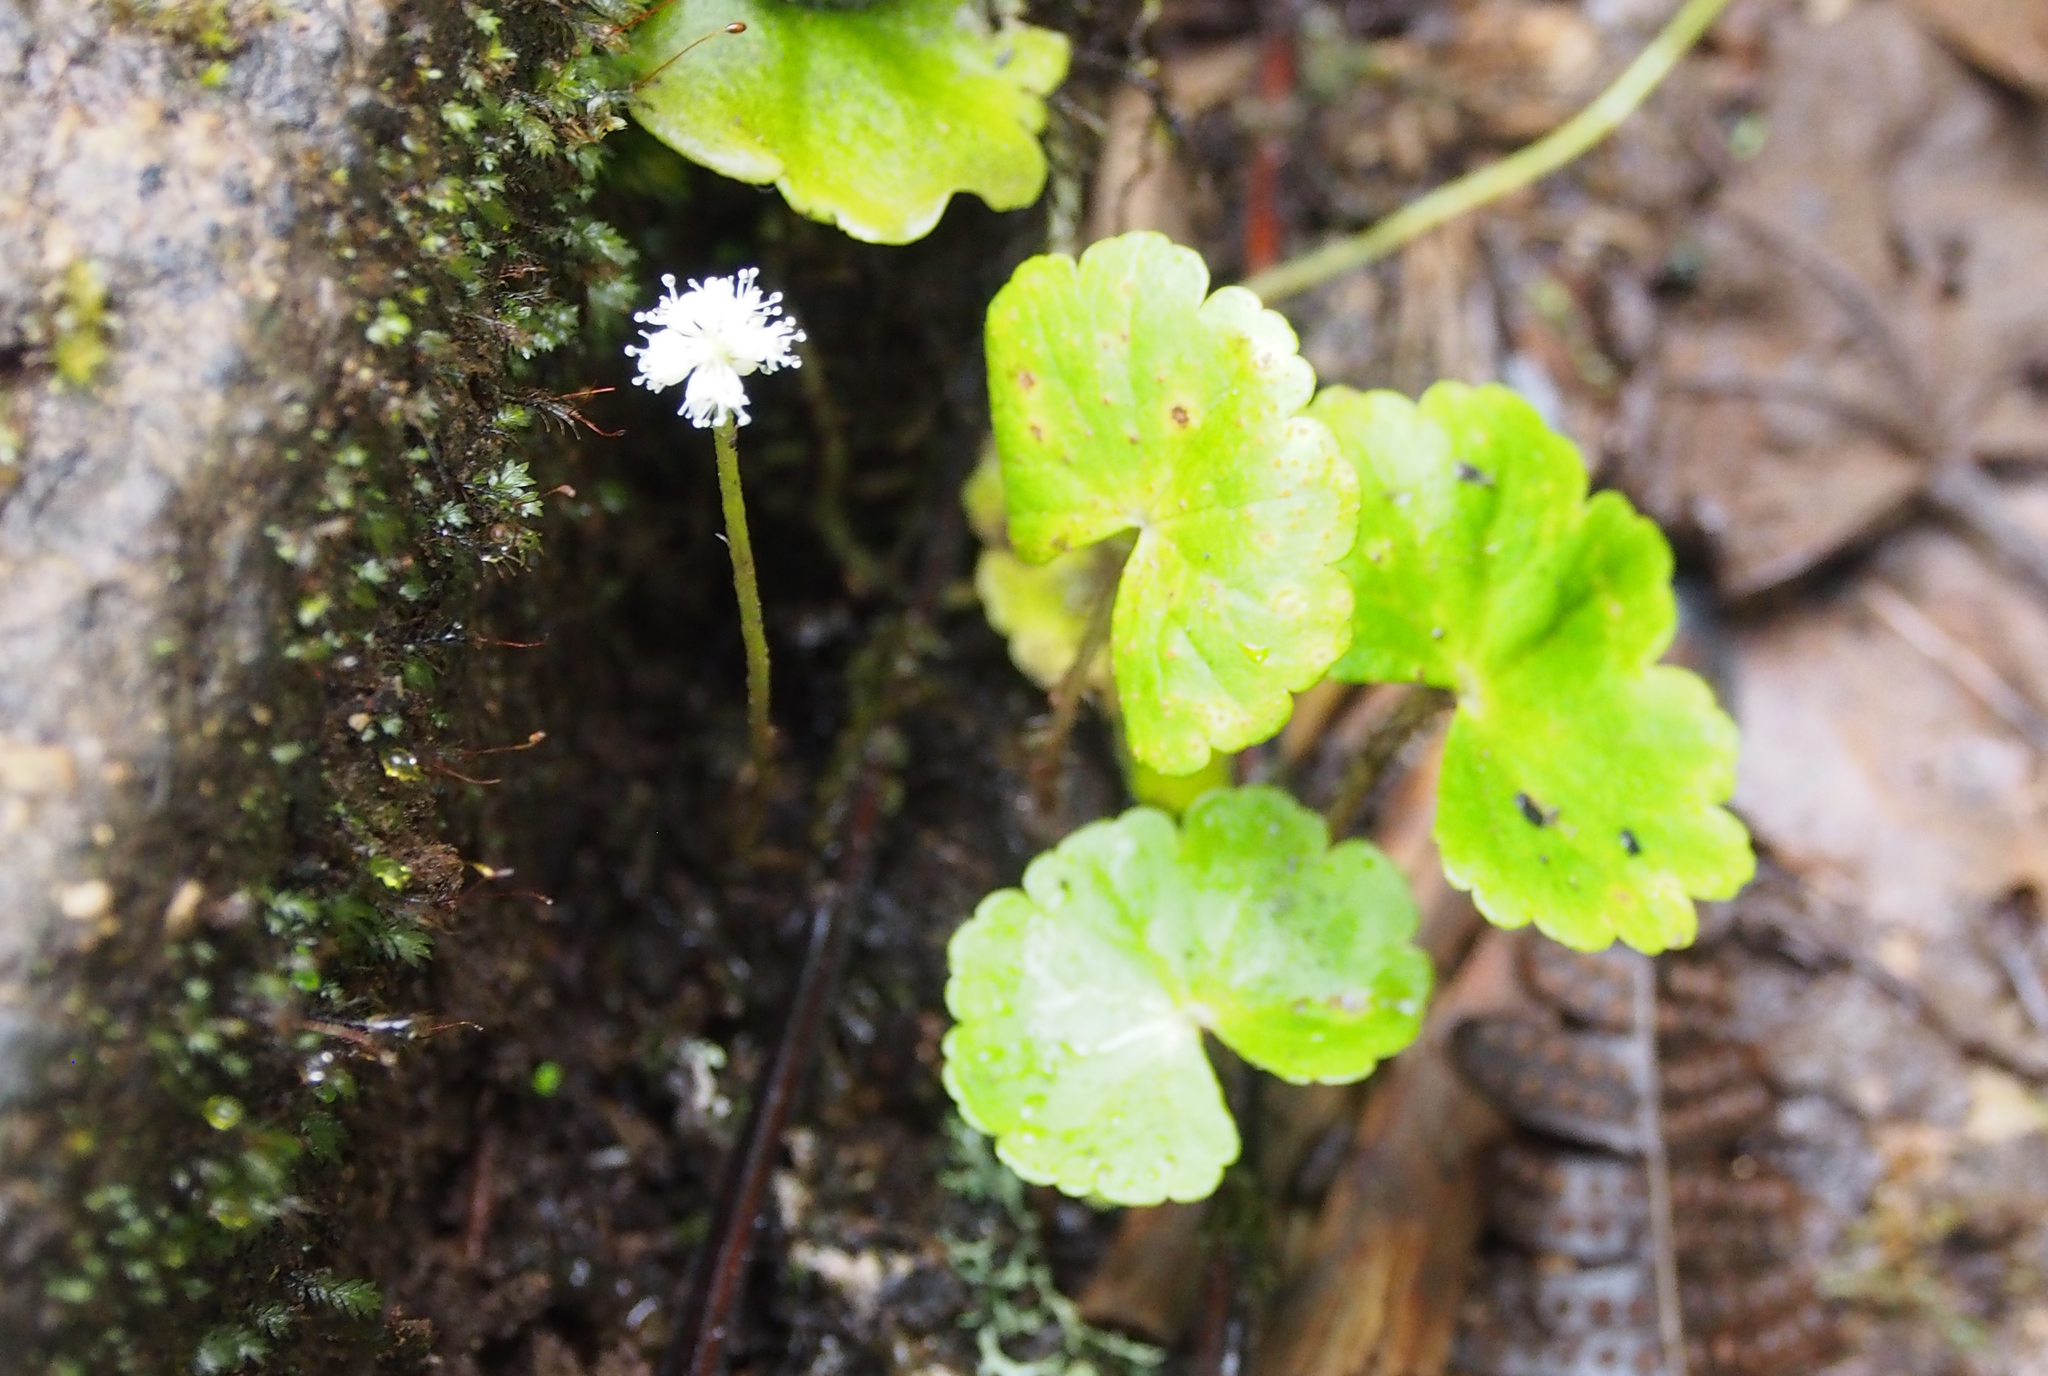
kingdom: Plantae
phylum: Tracheophyta
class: Magnoliopsida
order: Apiales
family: Araliaceae
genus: Hydrocotyle
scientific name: Hydrocotyle leucocephala
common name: Brazilian pennywort
